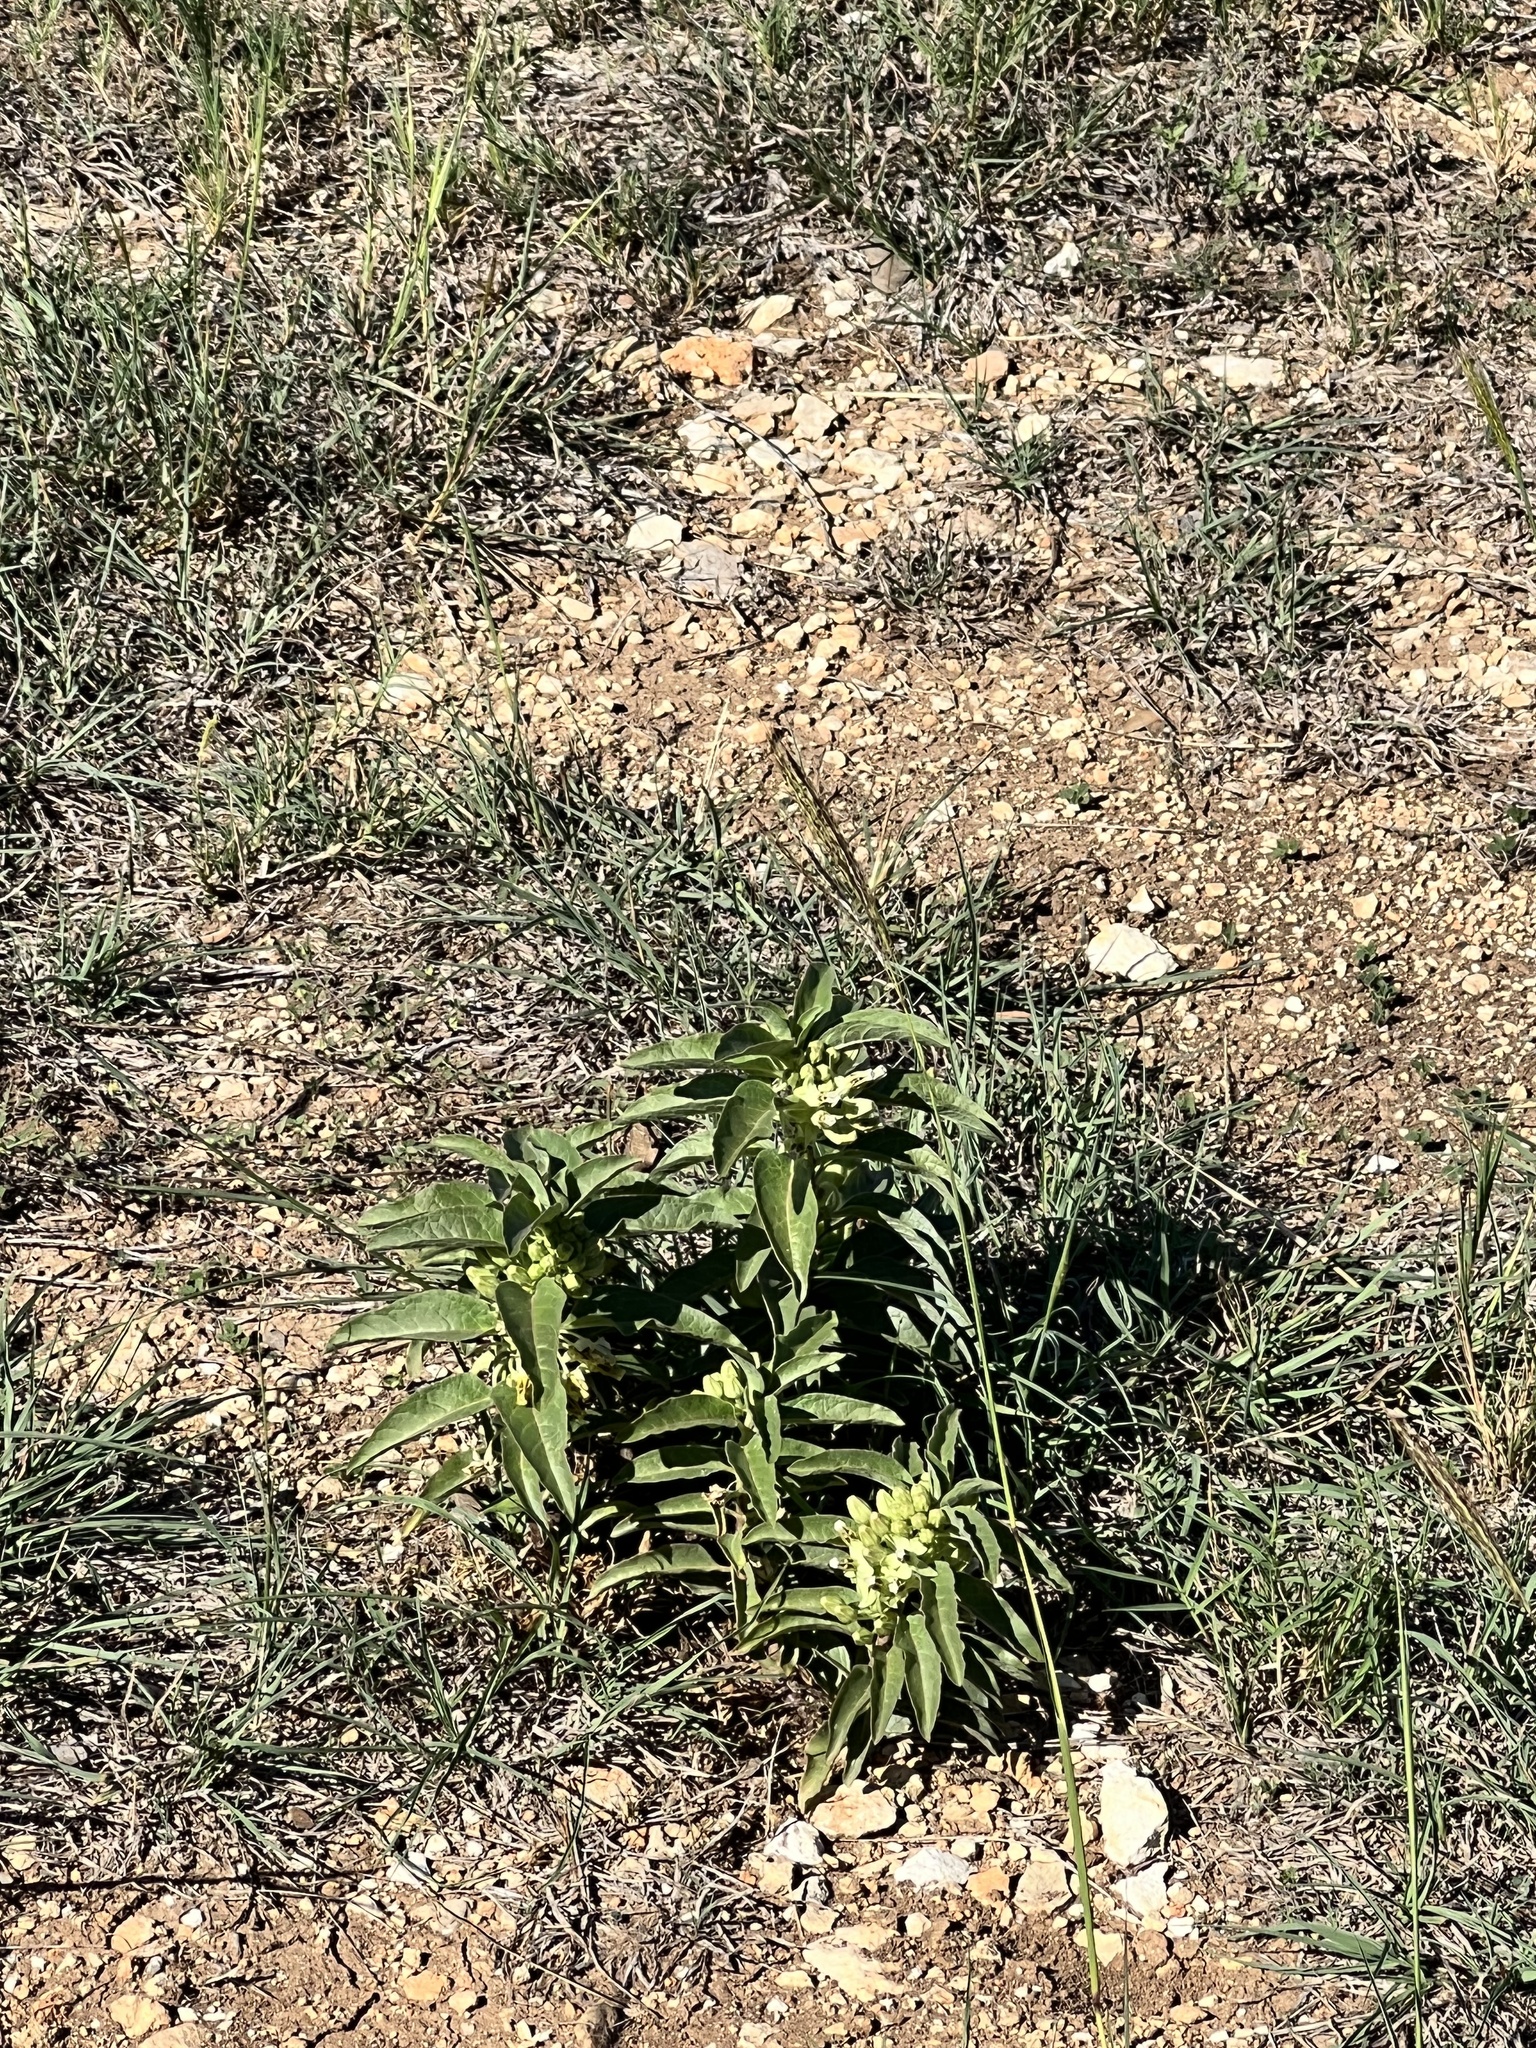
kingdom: Plantae
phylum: Tracheophyta
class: Magnoliopsida
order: Gentianales
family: Apocynaceae
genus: Asclepias
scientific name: Asclepias oenotheroides
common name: Zizotes milkweed
